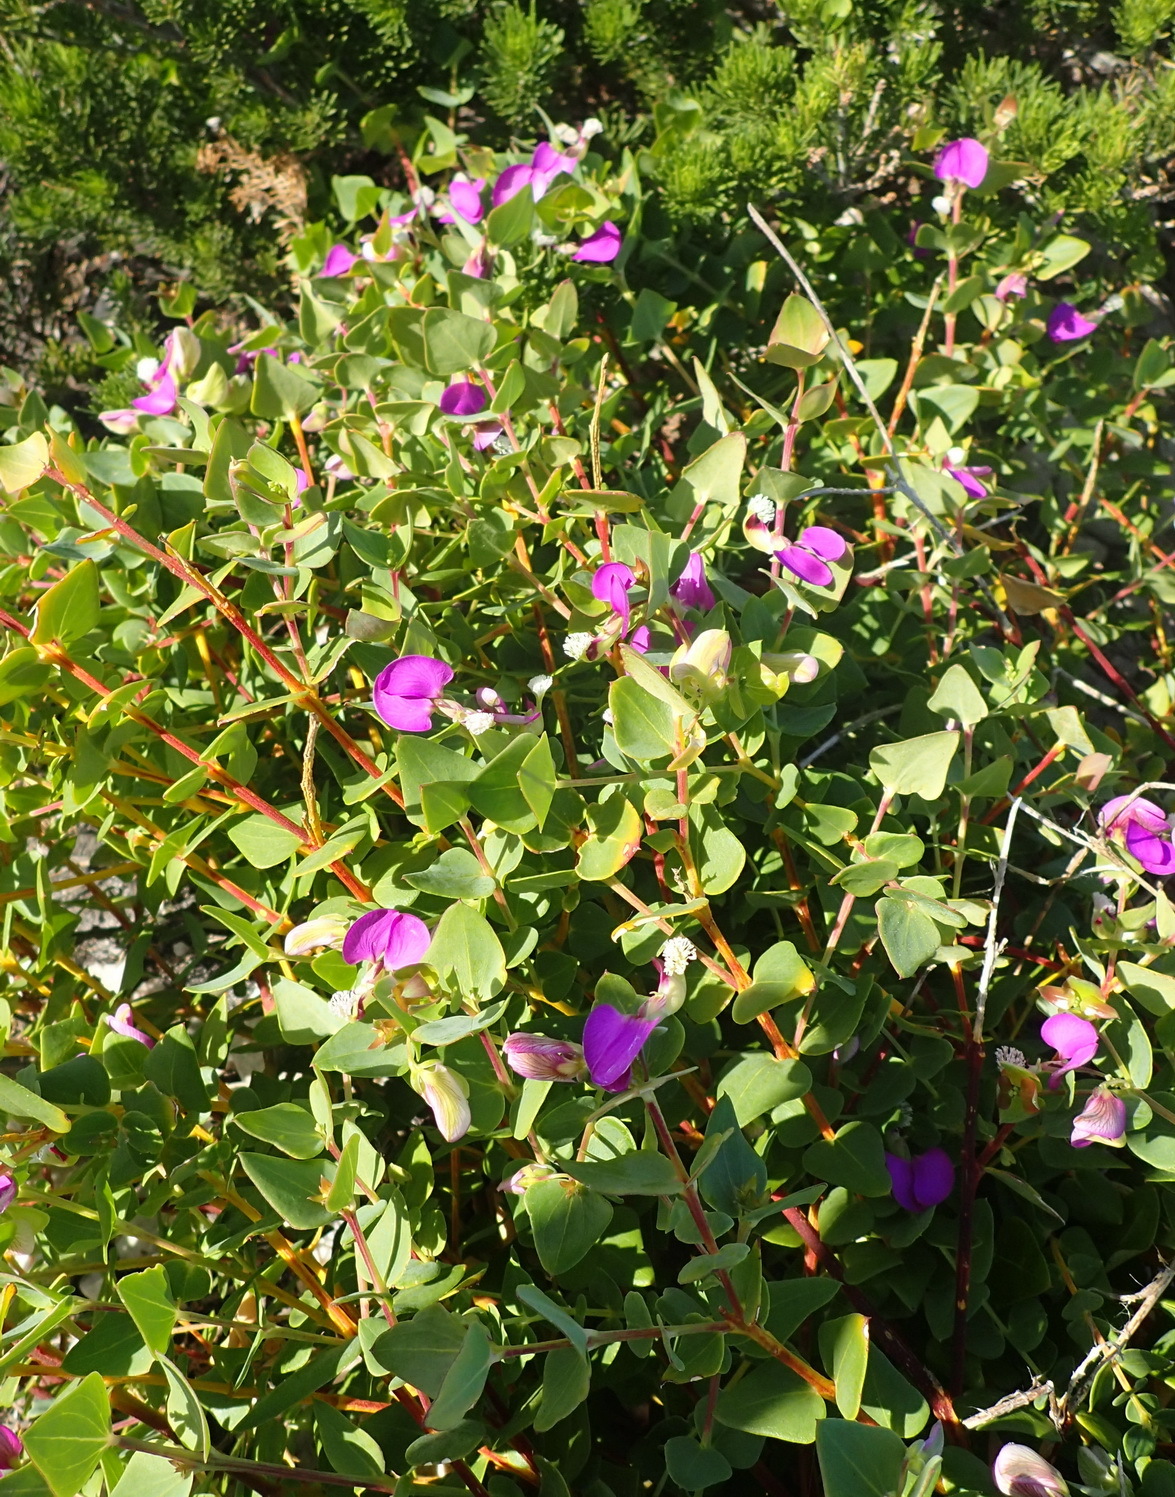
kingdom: Plantae
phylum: Tracheophyta
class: Magnoliopsida
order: Fabales
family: Polygalaceae
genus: Polygala
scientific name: Polygala fruticosa
